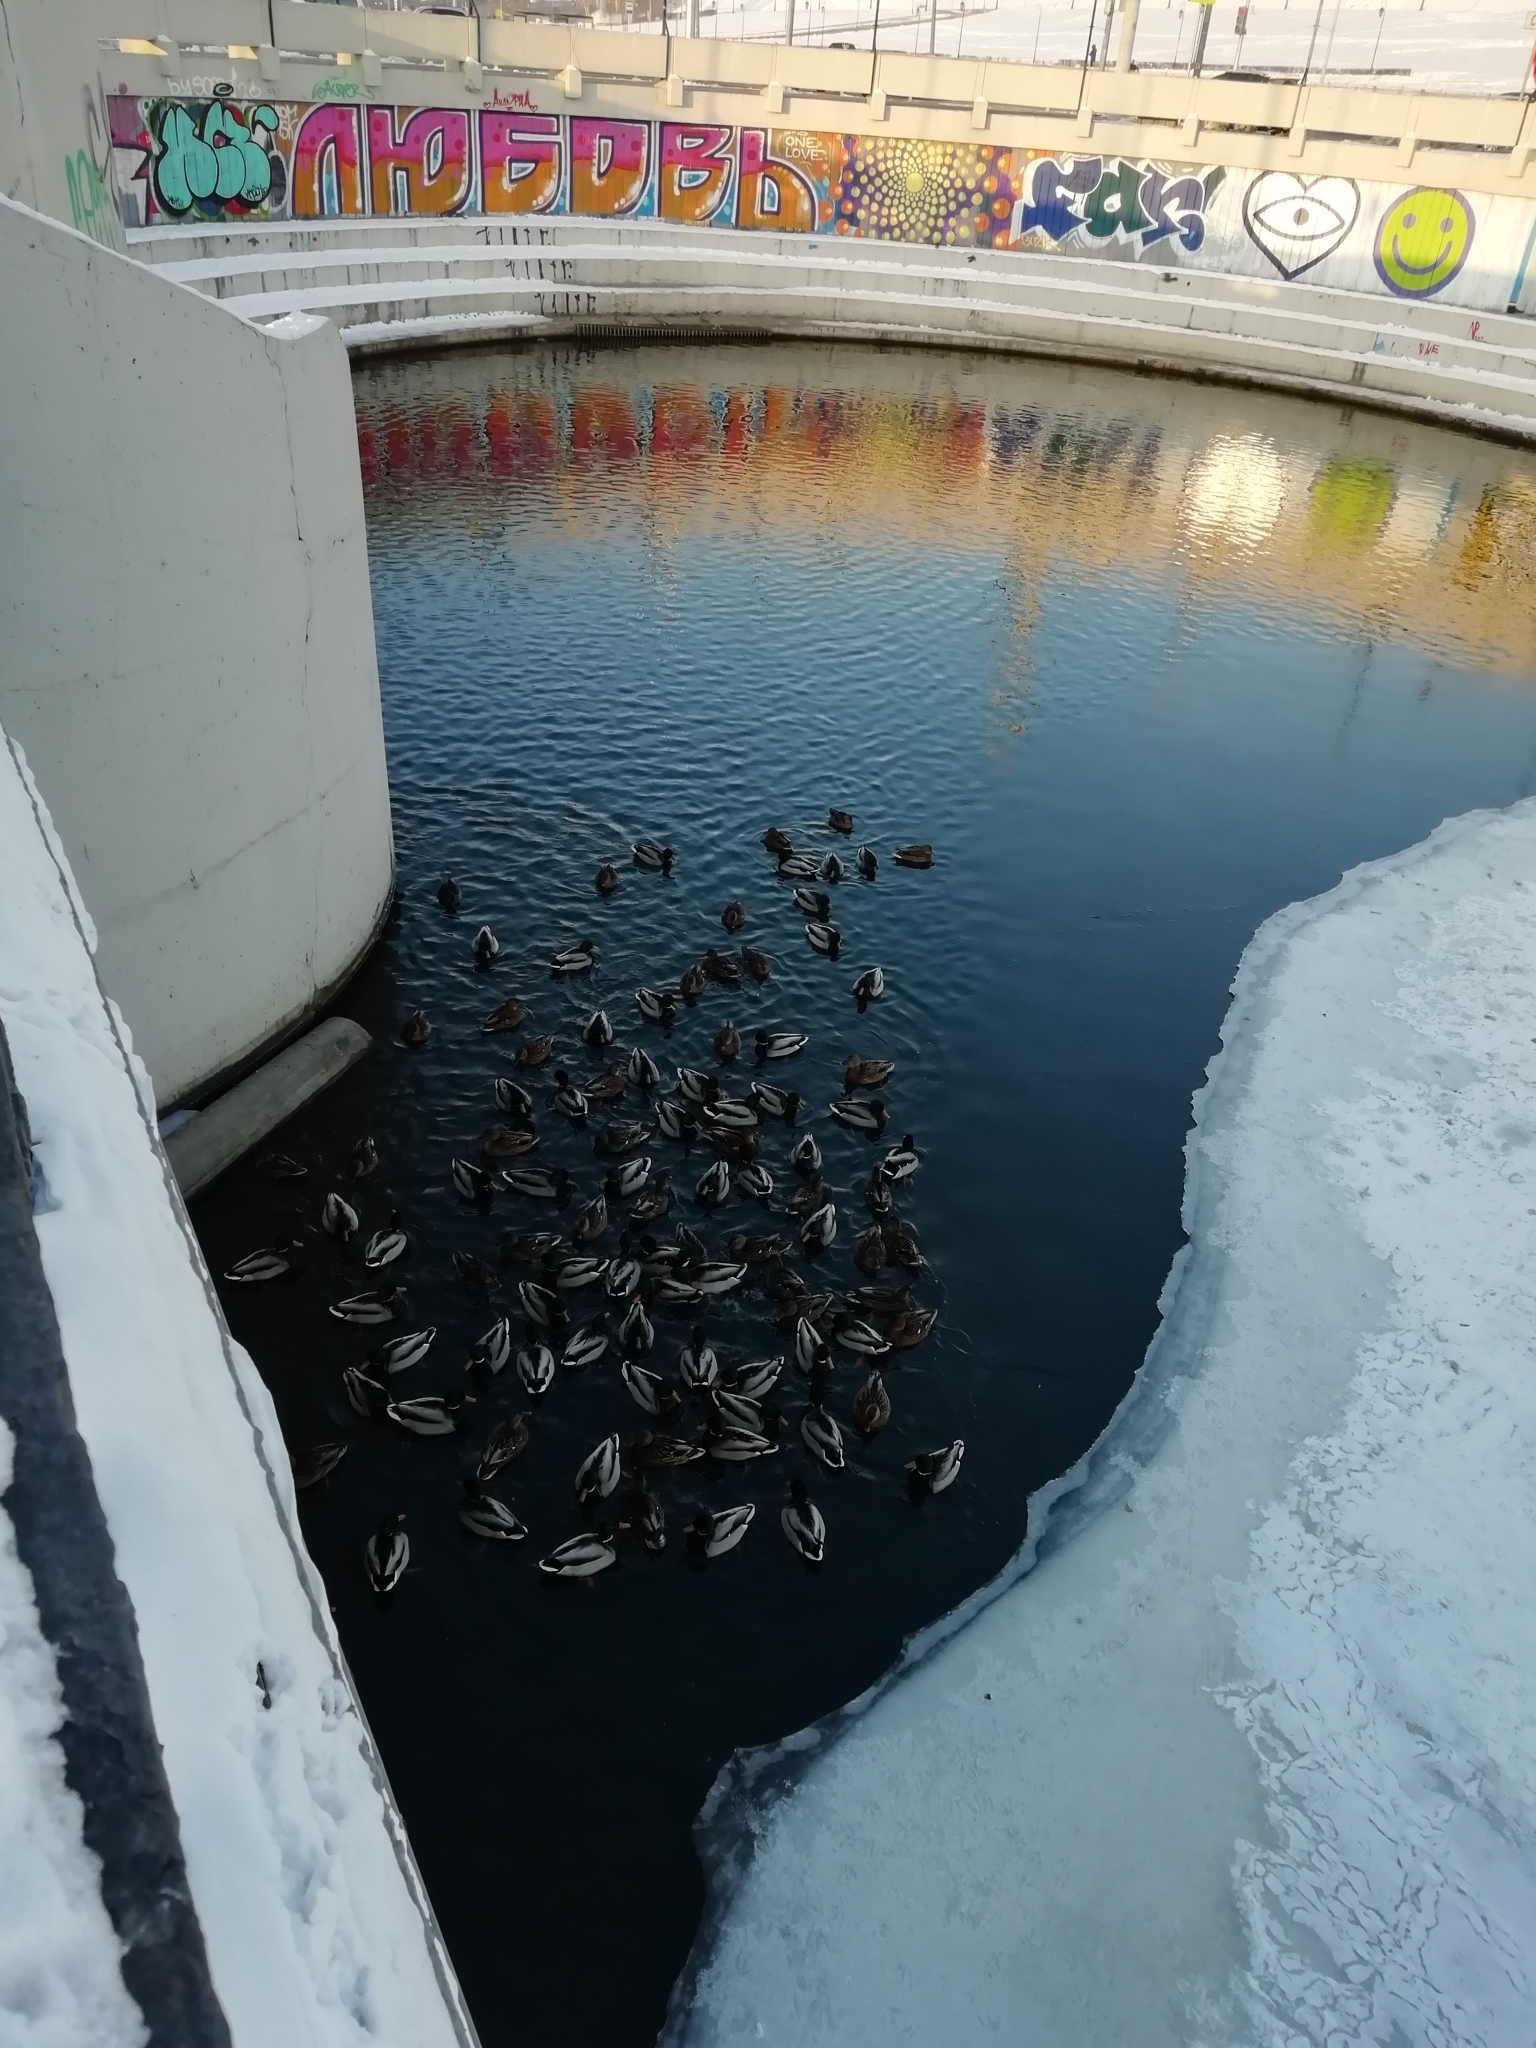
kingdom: Animalia
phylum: Chordata
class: Aves
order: Anseriformes
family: Anatidae
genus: Anas
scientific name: Anas platyrhynchos
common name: Mallard
